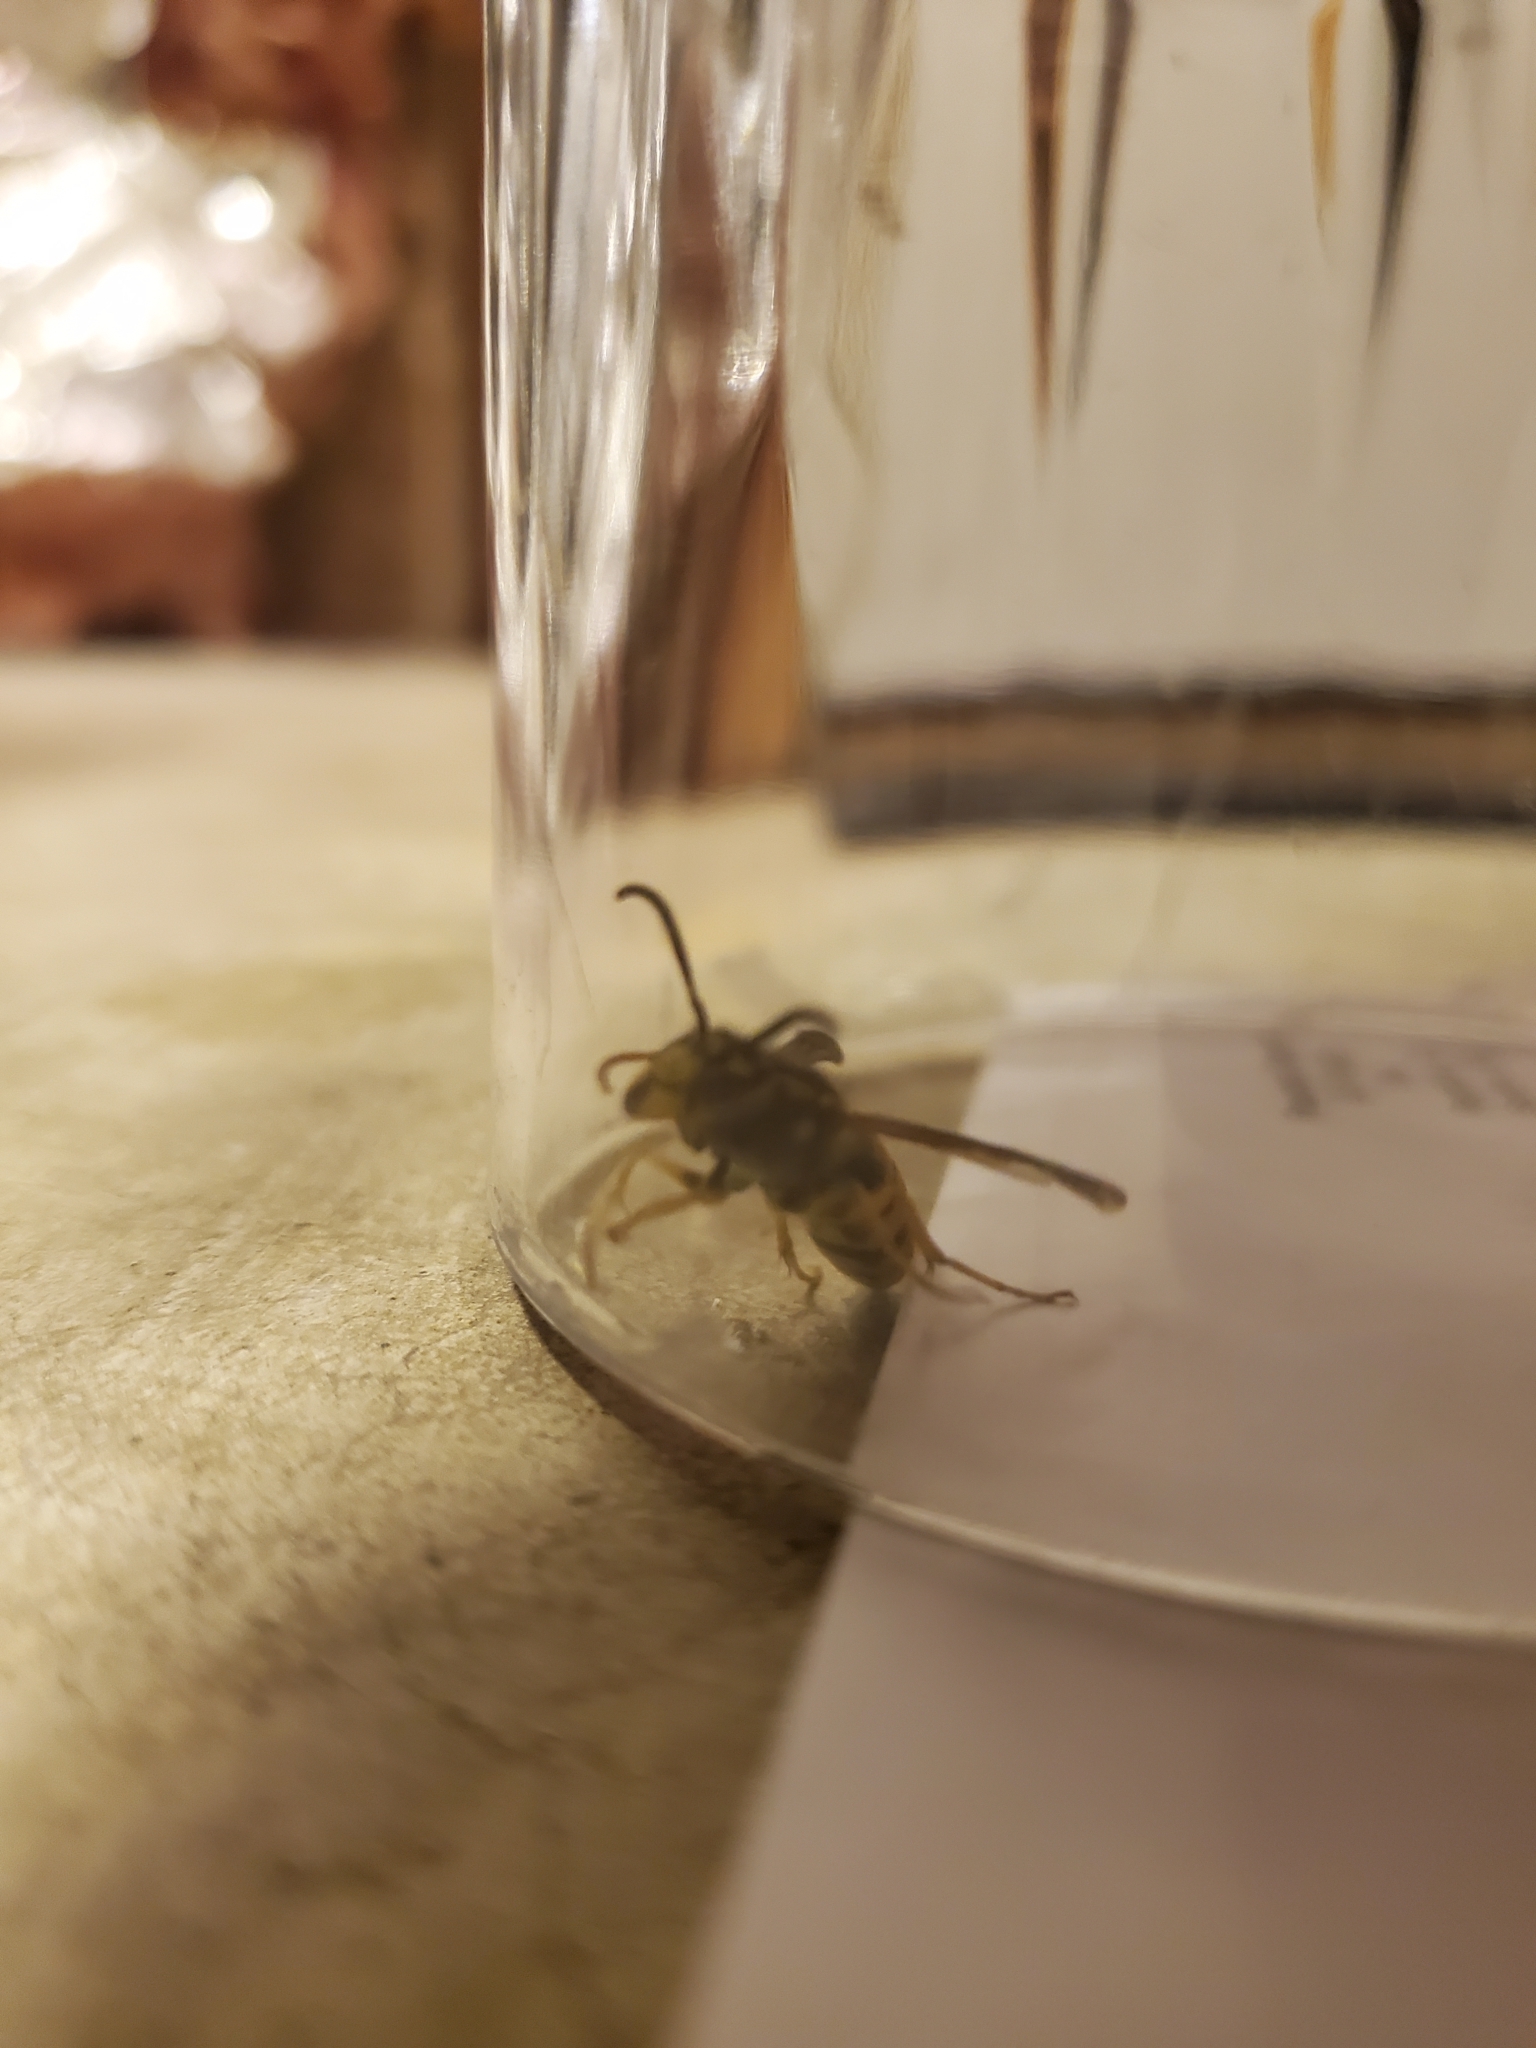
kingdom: Animalia
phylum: Arthropoda
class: Insecta
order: Hymenoptera
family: Vespidae
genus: Vespula
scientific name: Vespula maculifrons
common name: Eastern yellowjacket
